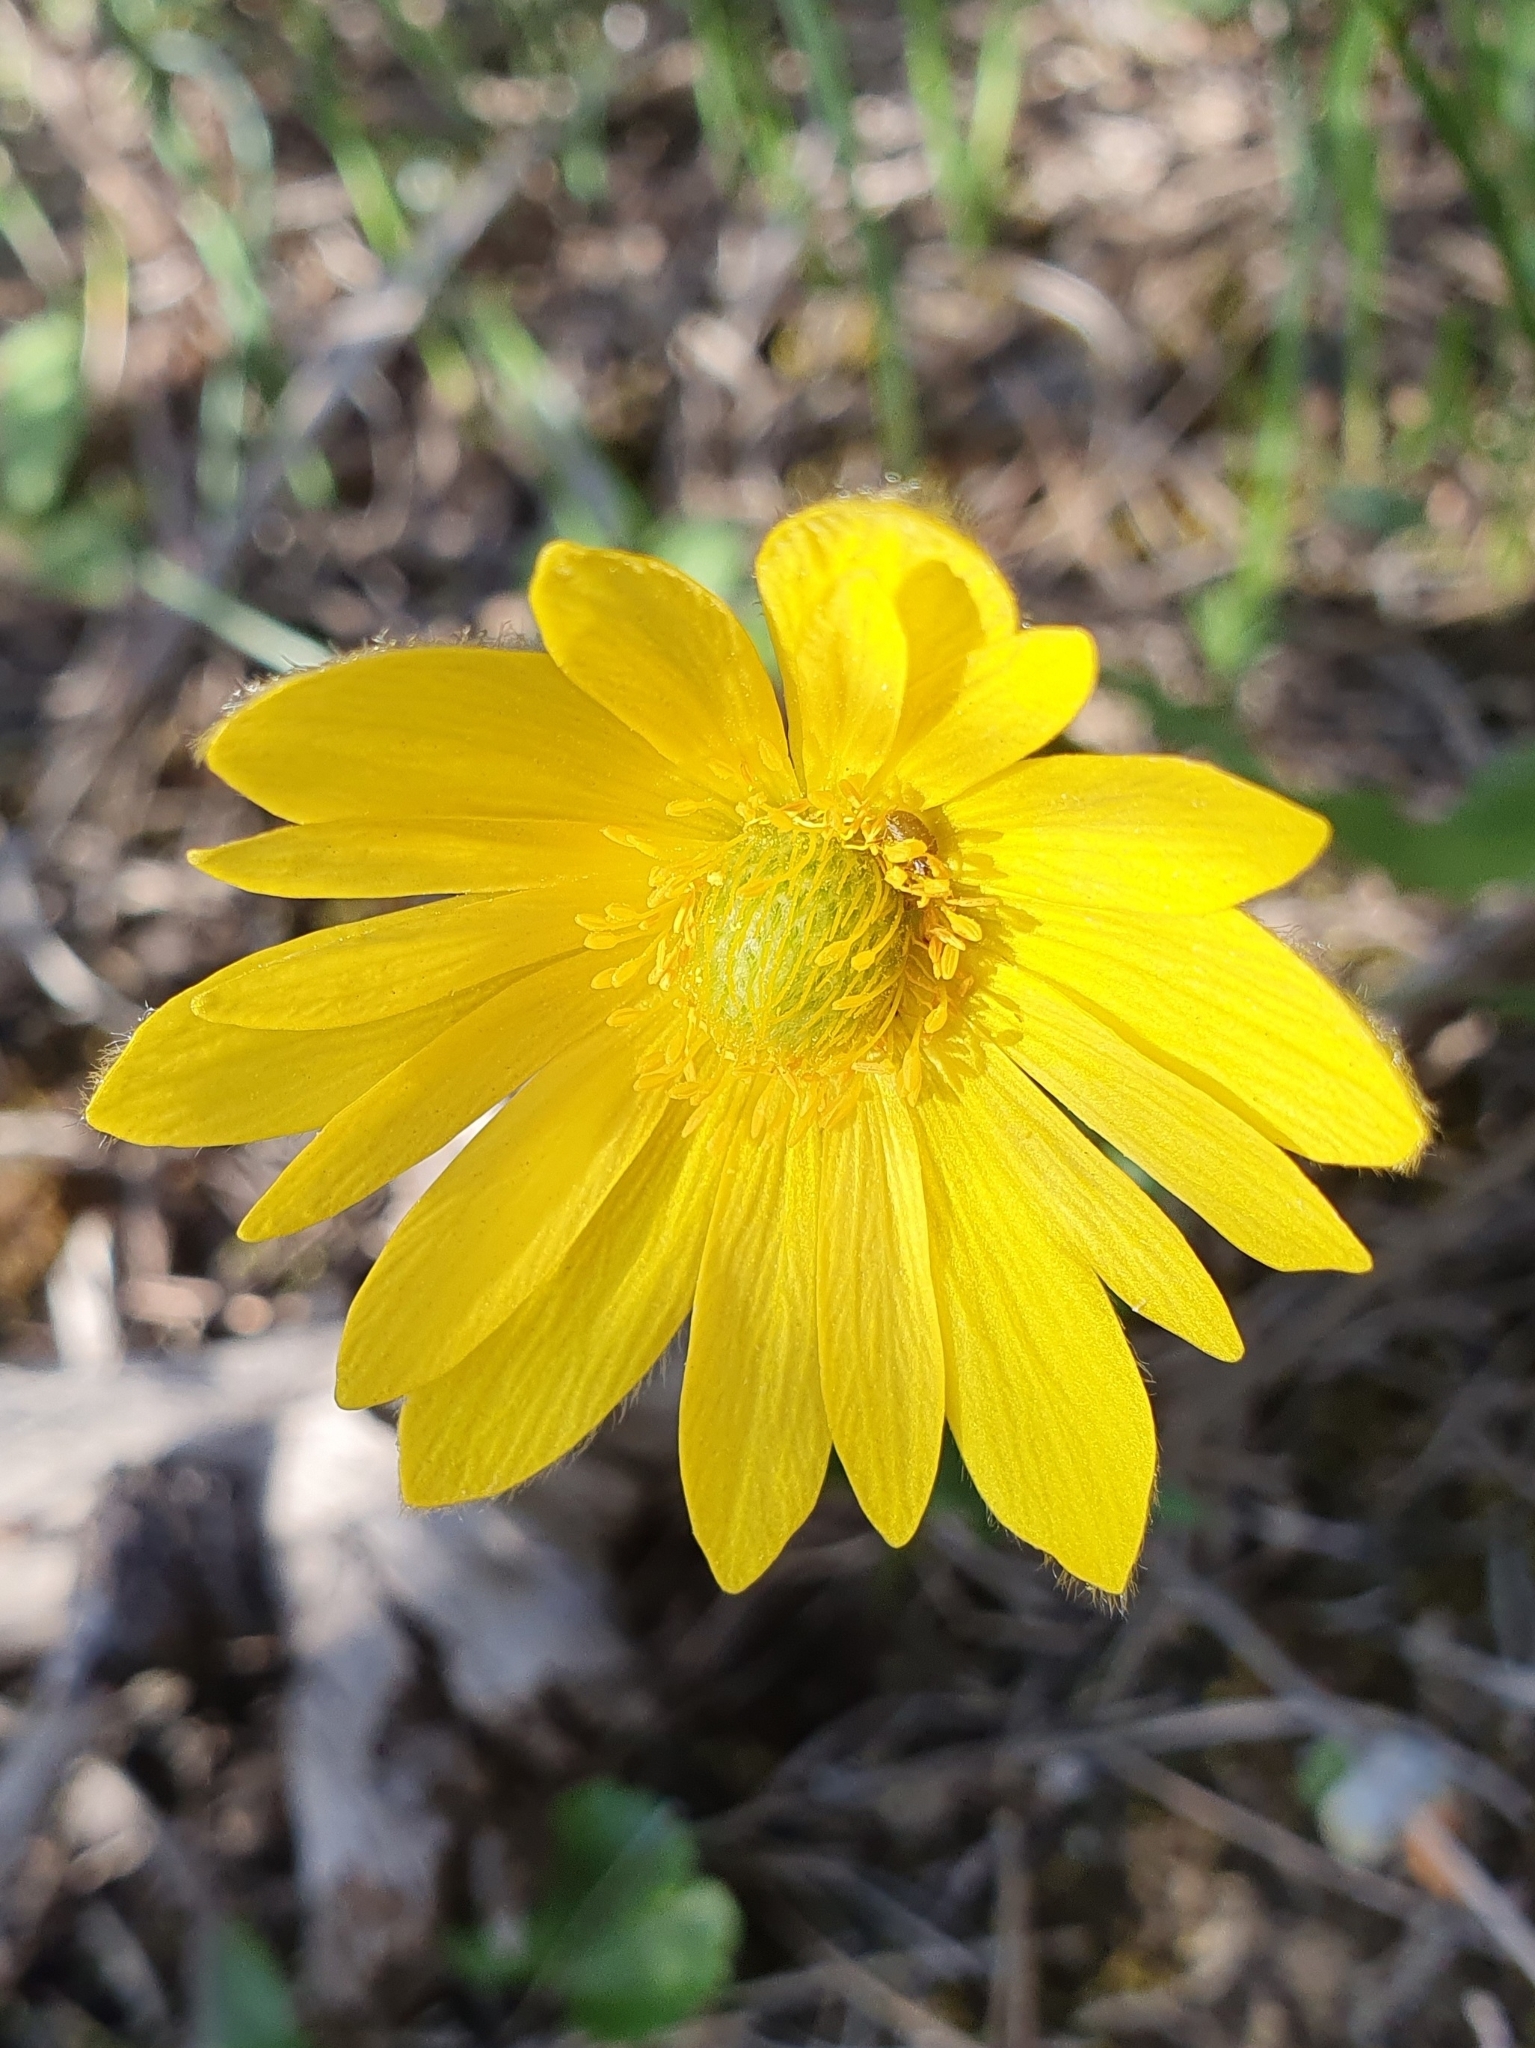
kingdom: Plantae
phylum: Tracheophyta
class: Magnoliopsida
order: Ranunculales
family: Ranunculaceae
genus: Anemone
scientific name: Anemone palmata
